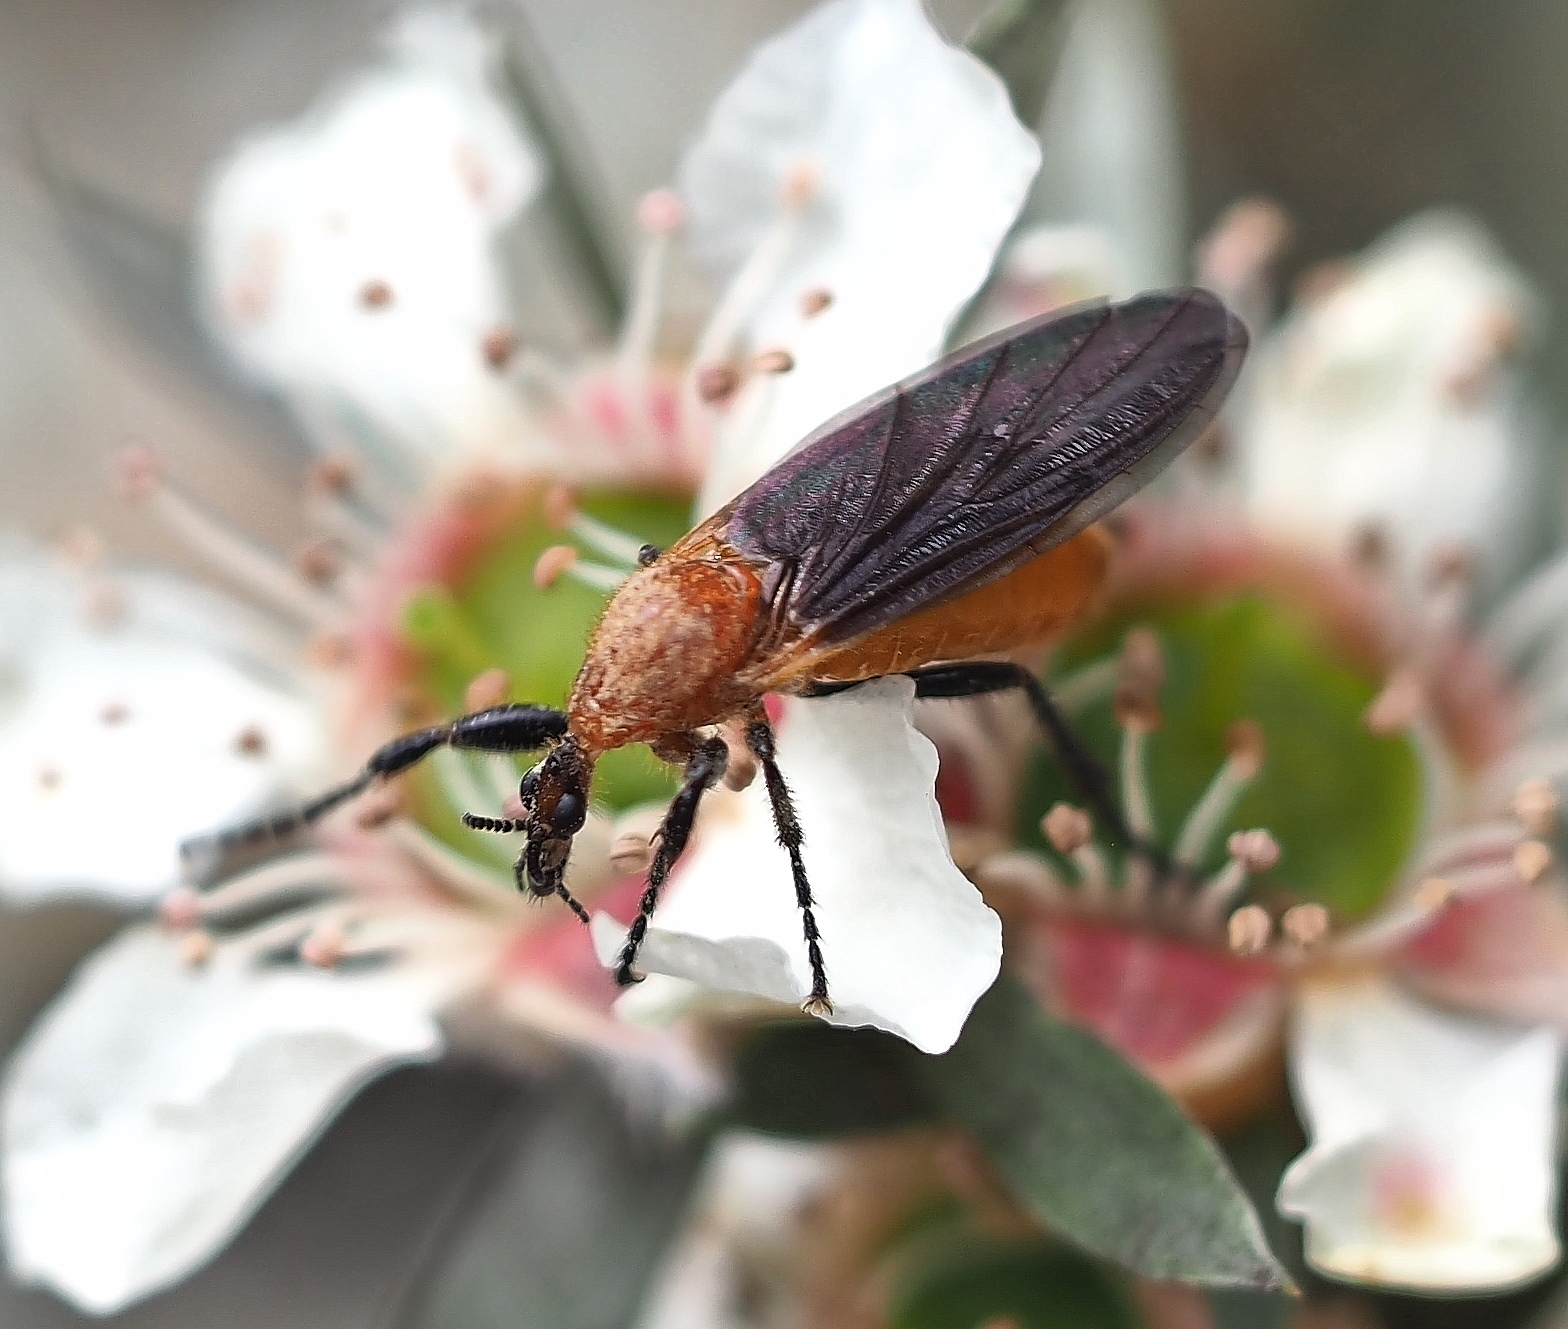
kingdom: Animalia
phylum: Arthropoda
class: Insecta
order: Diptera
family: Bibionidae
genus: Bibio
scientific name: Bibio imitator
